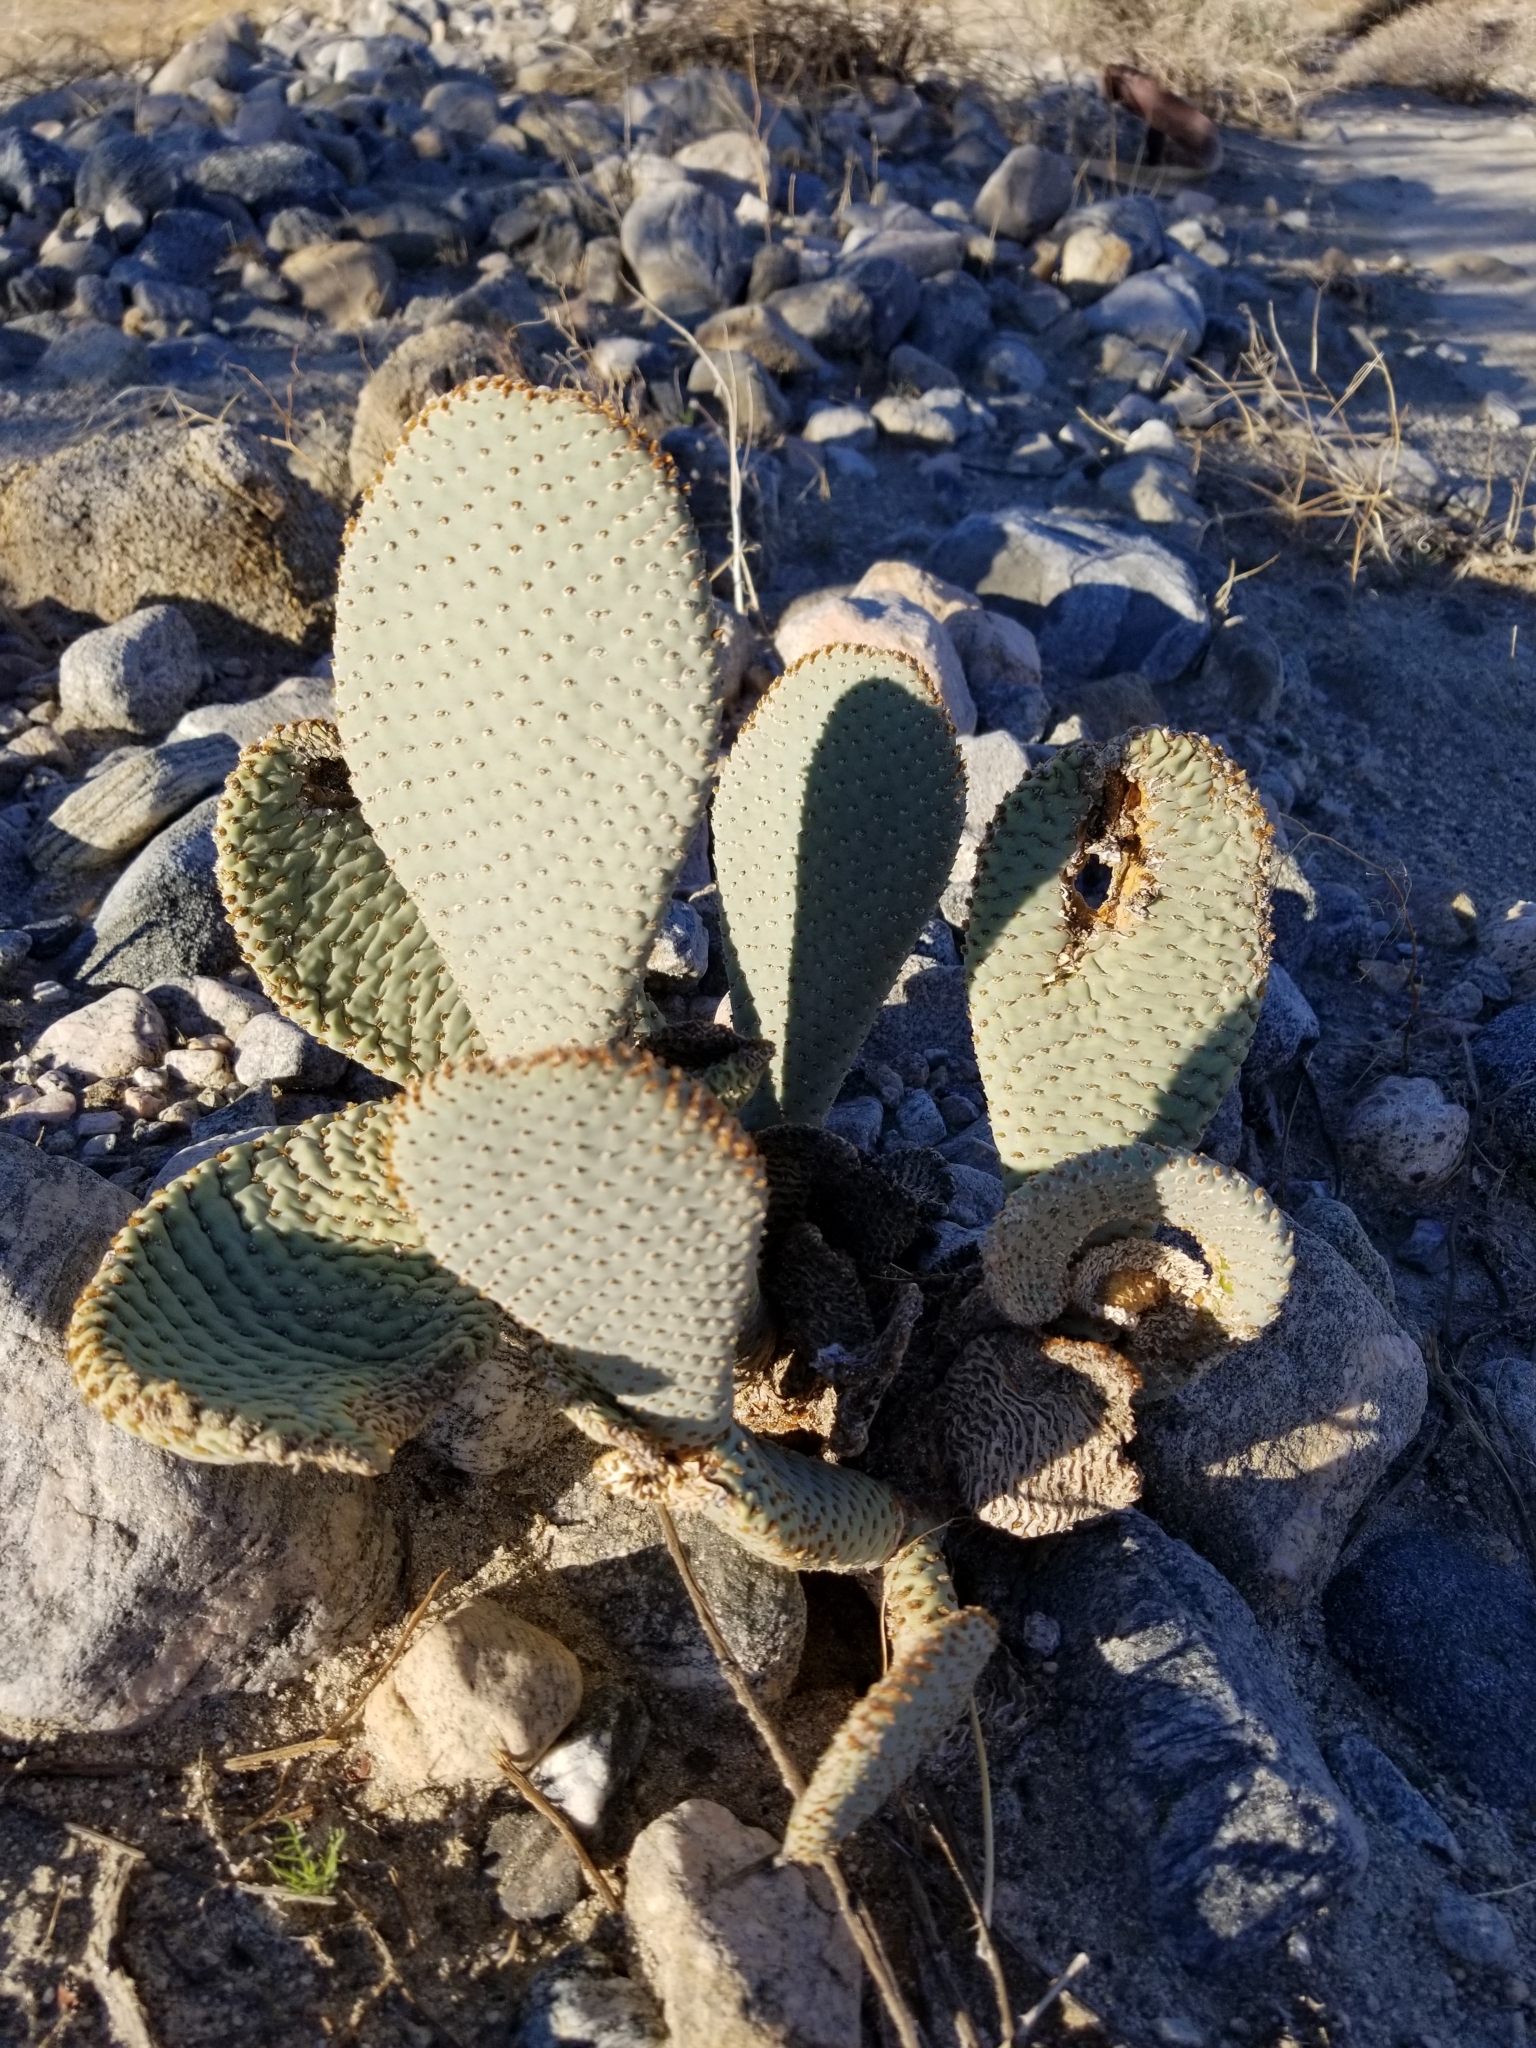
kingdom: Plantae
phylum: Tracheophyta
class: Magnoliopsida
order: Caryophyllales
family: Cactaceae
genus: Opuntia
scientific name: Opuntia basilaris
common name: Beavertail prickly-pear
